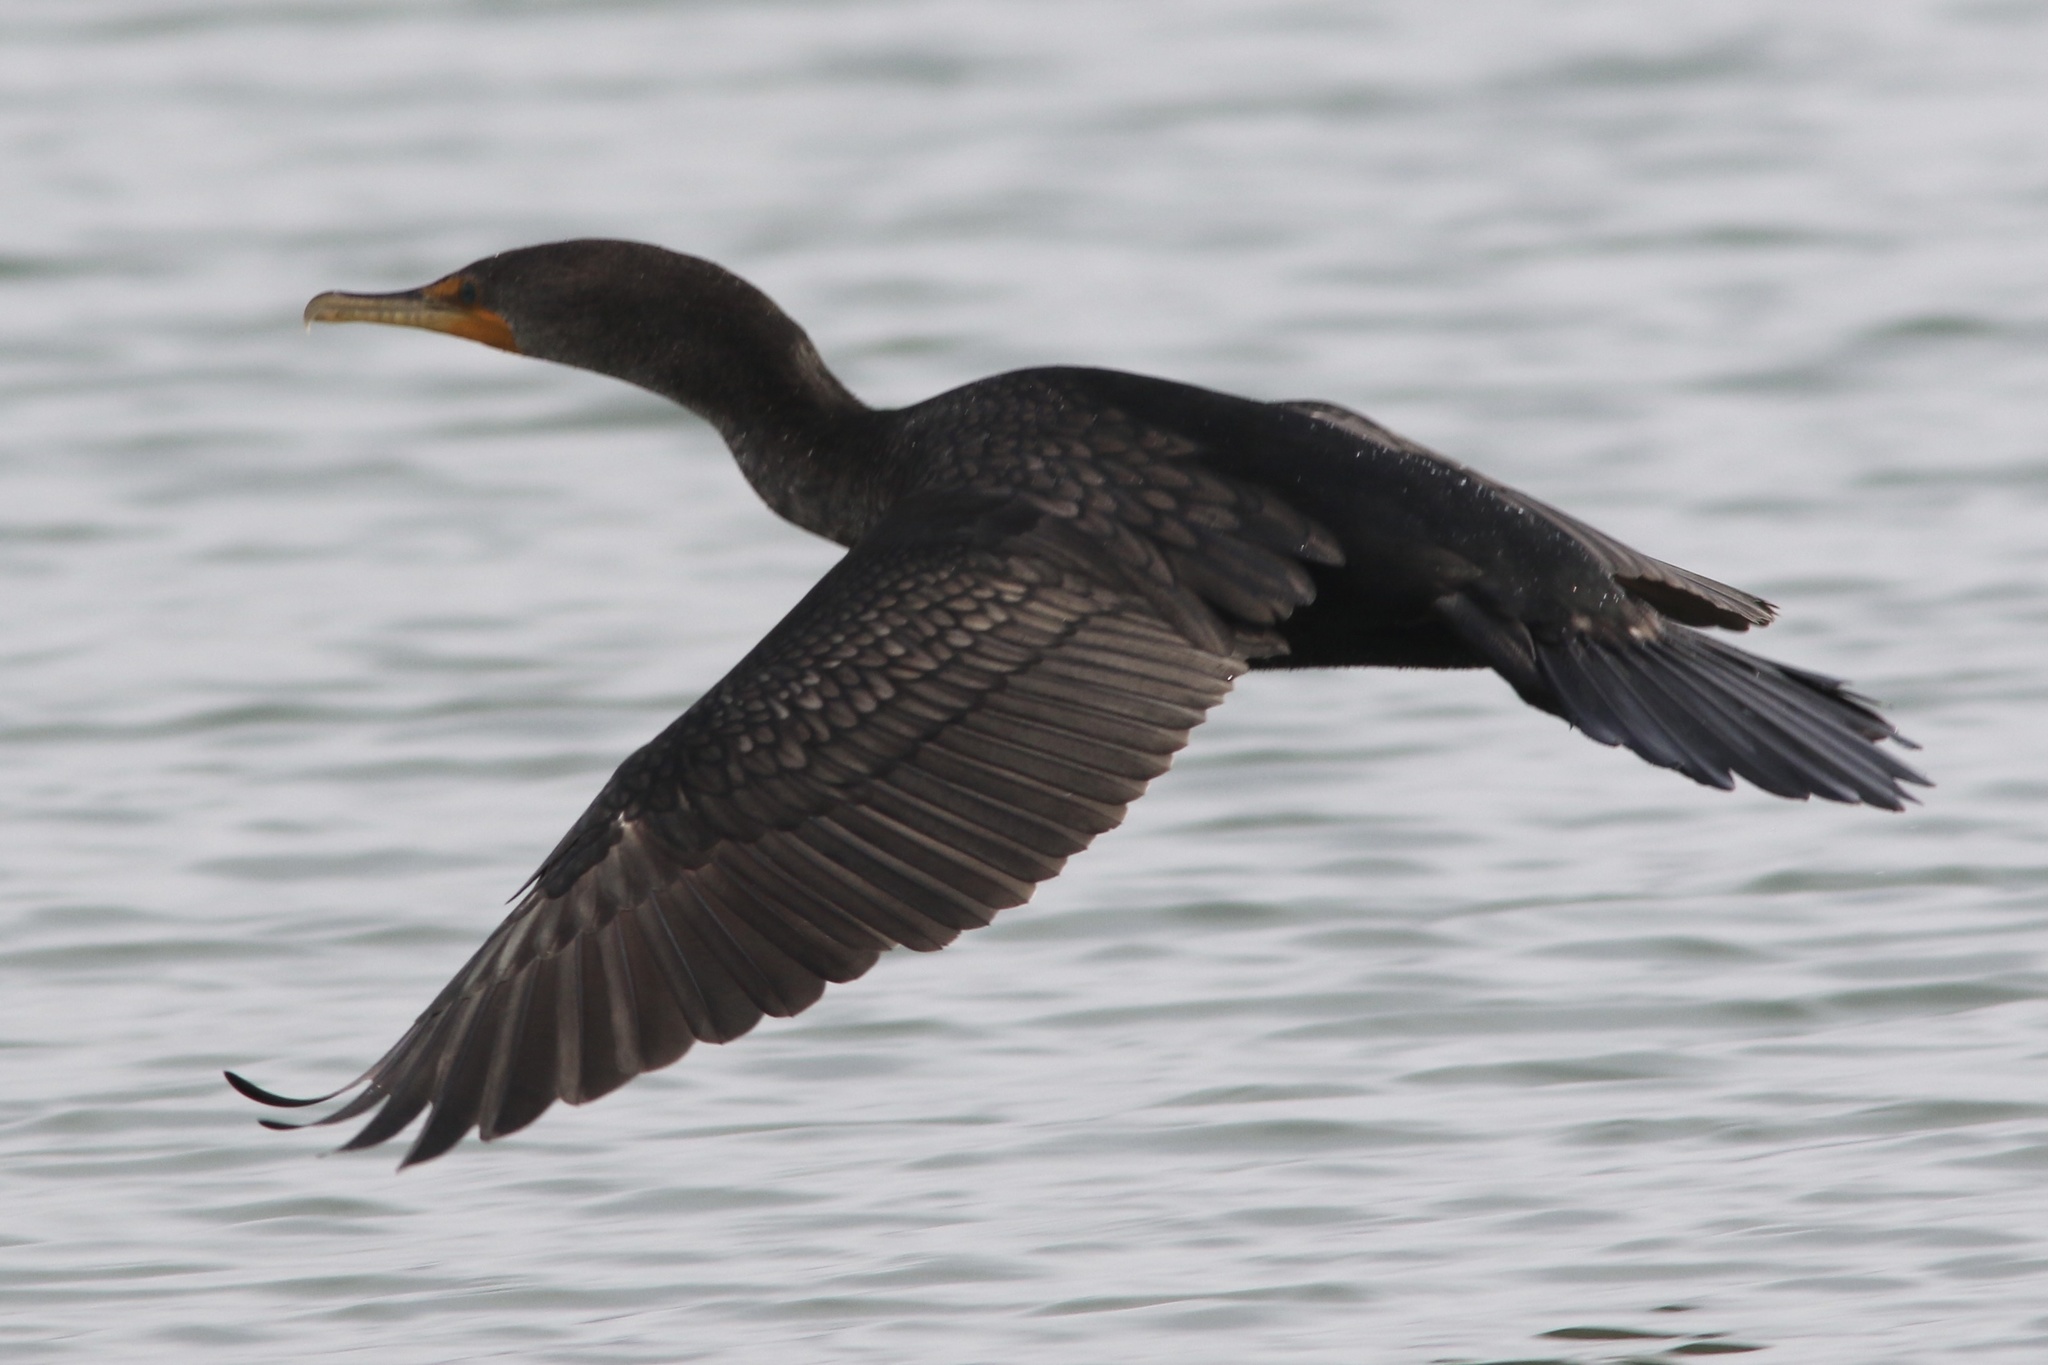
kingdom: Animalia
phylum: Chordata
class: Aves
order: Suliformes
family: Phalacrocoracidae
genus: Phalacrocorax
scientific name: Phalacrocorax auritus
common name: Double-crested cormorant
